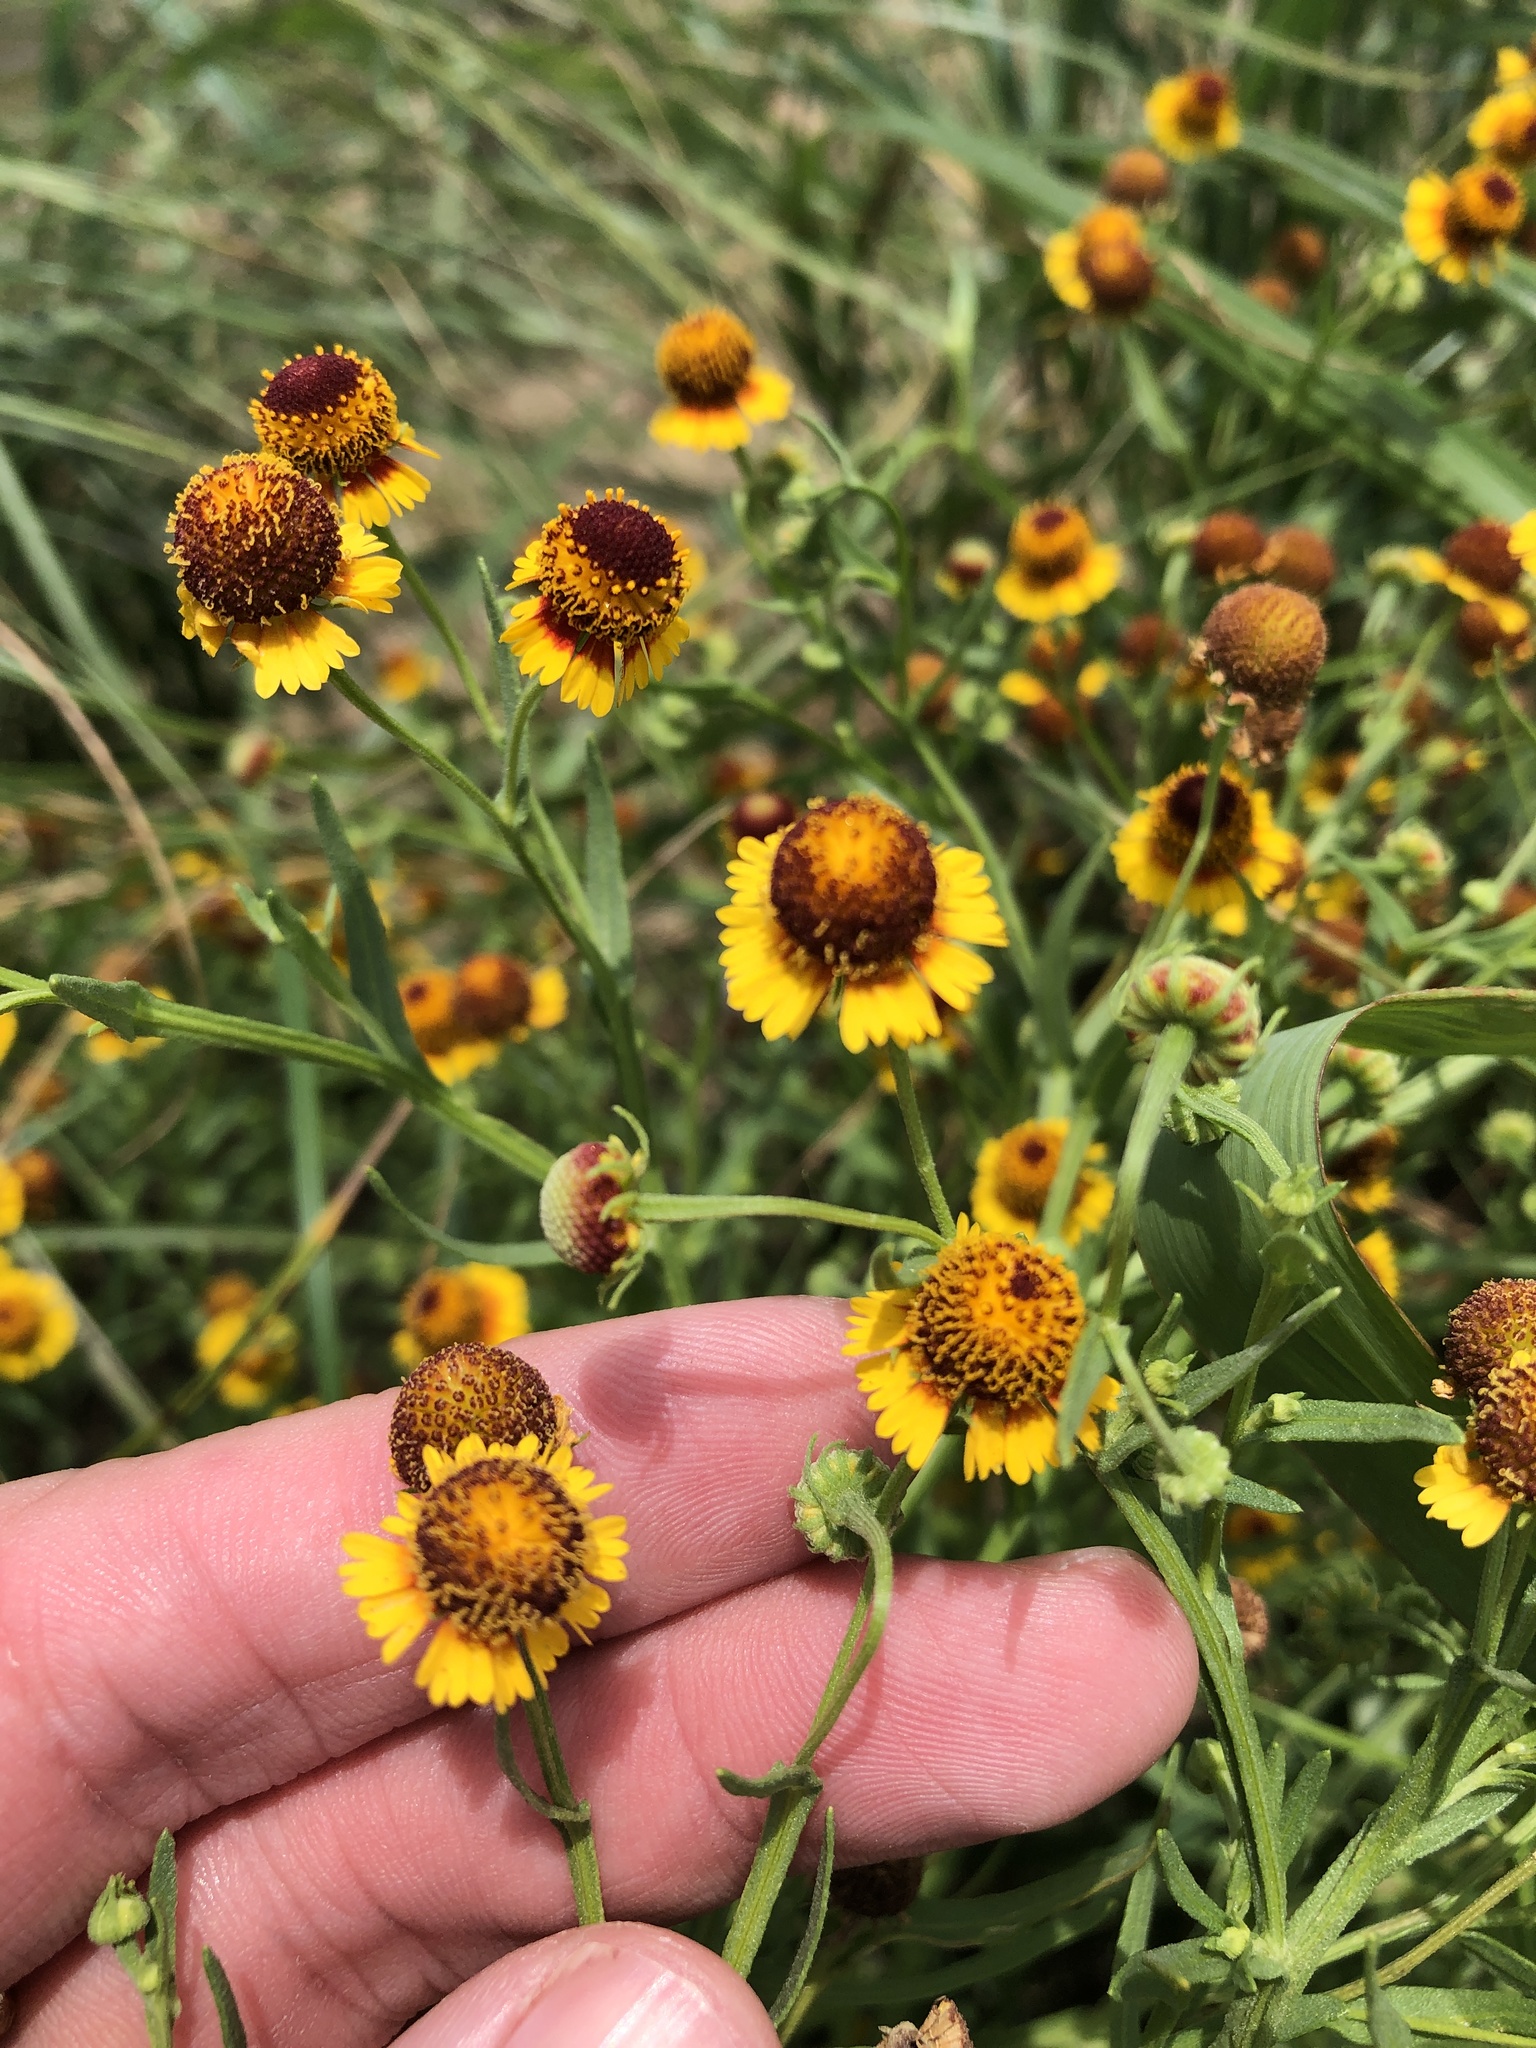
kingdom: Plantae
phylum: Tracheophyta
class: Magnoliopsida
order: Asterales
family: Asteraceae
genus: Helenium
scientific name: Helenium elegans
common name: Pretty sneezeweed
